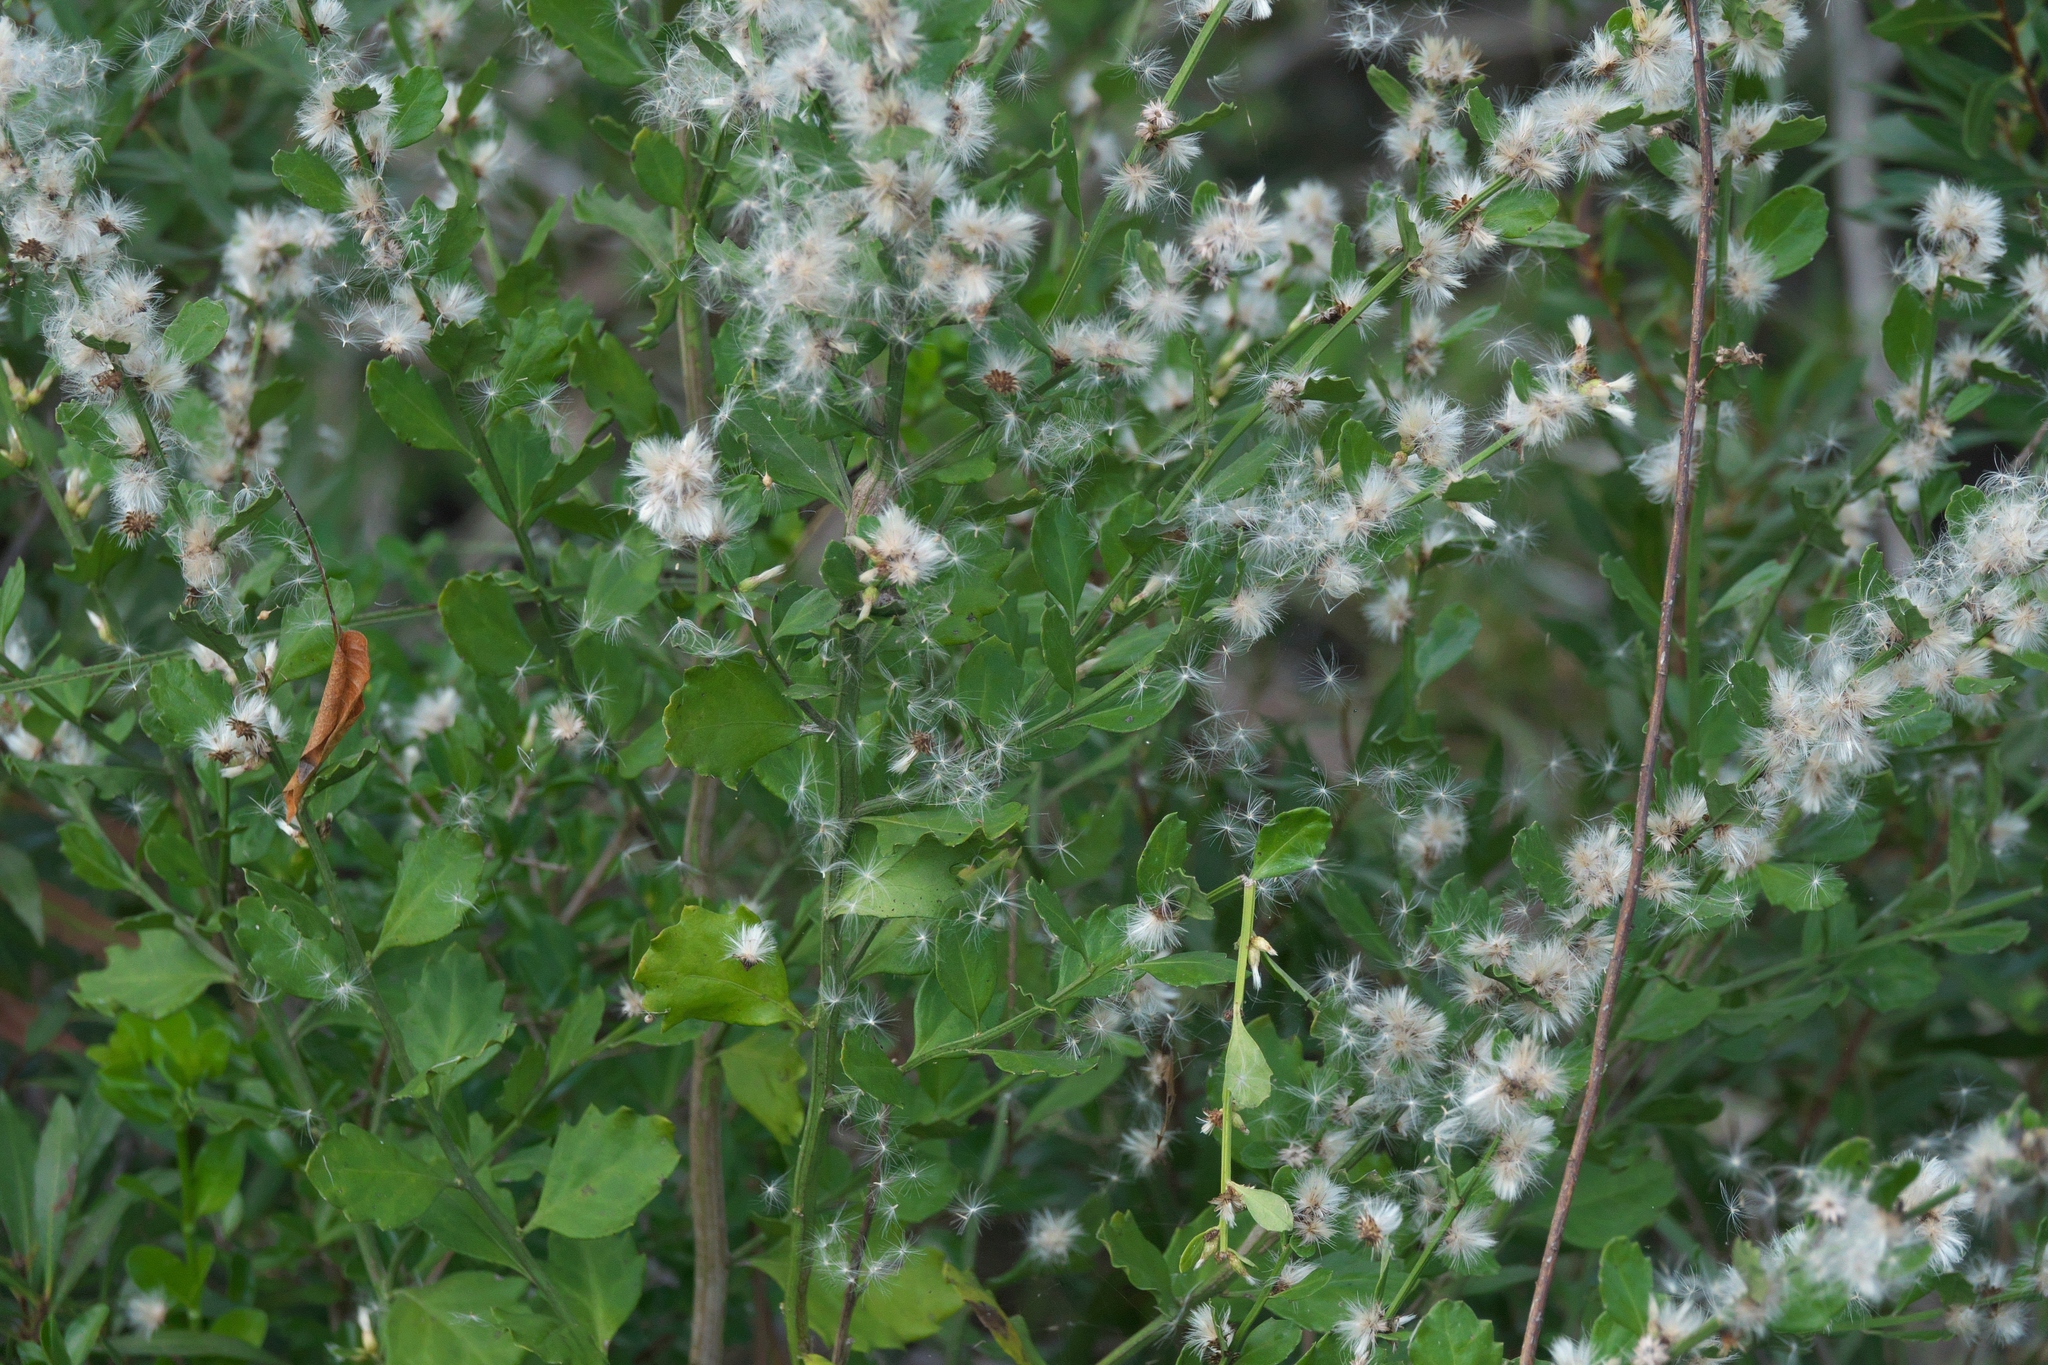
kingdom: Plantae
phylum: Tracheophyta
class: Magnoliopsida
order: Asterales
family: Asteraceae
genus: Baccharis
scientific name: Baccharis glomeruliflora
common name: Silverling groundsel bush
